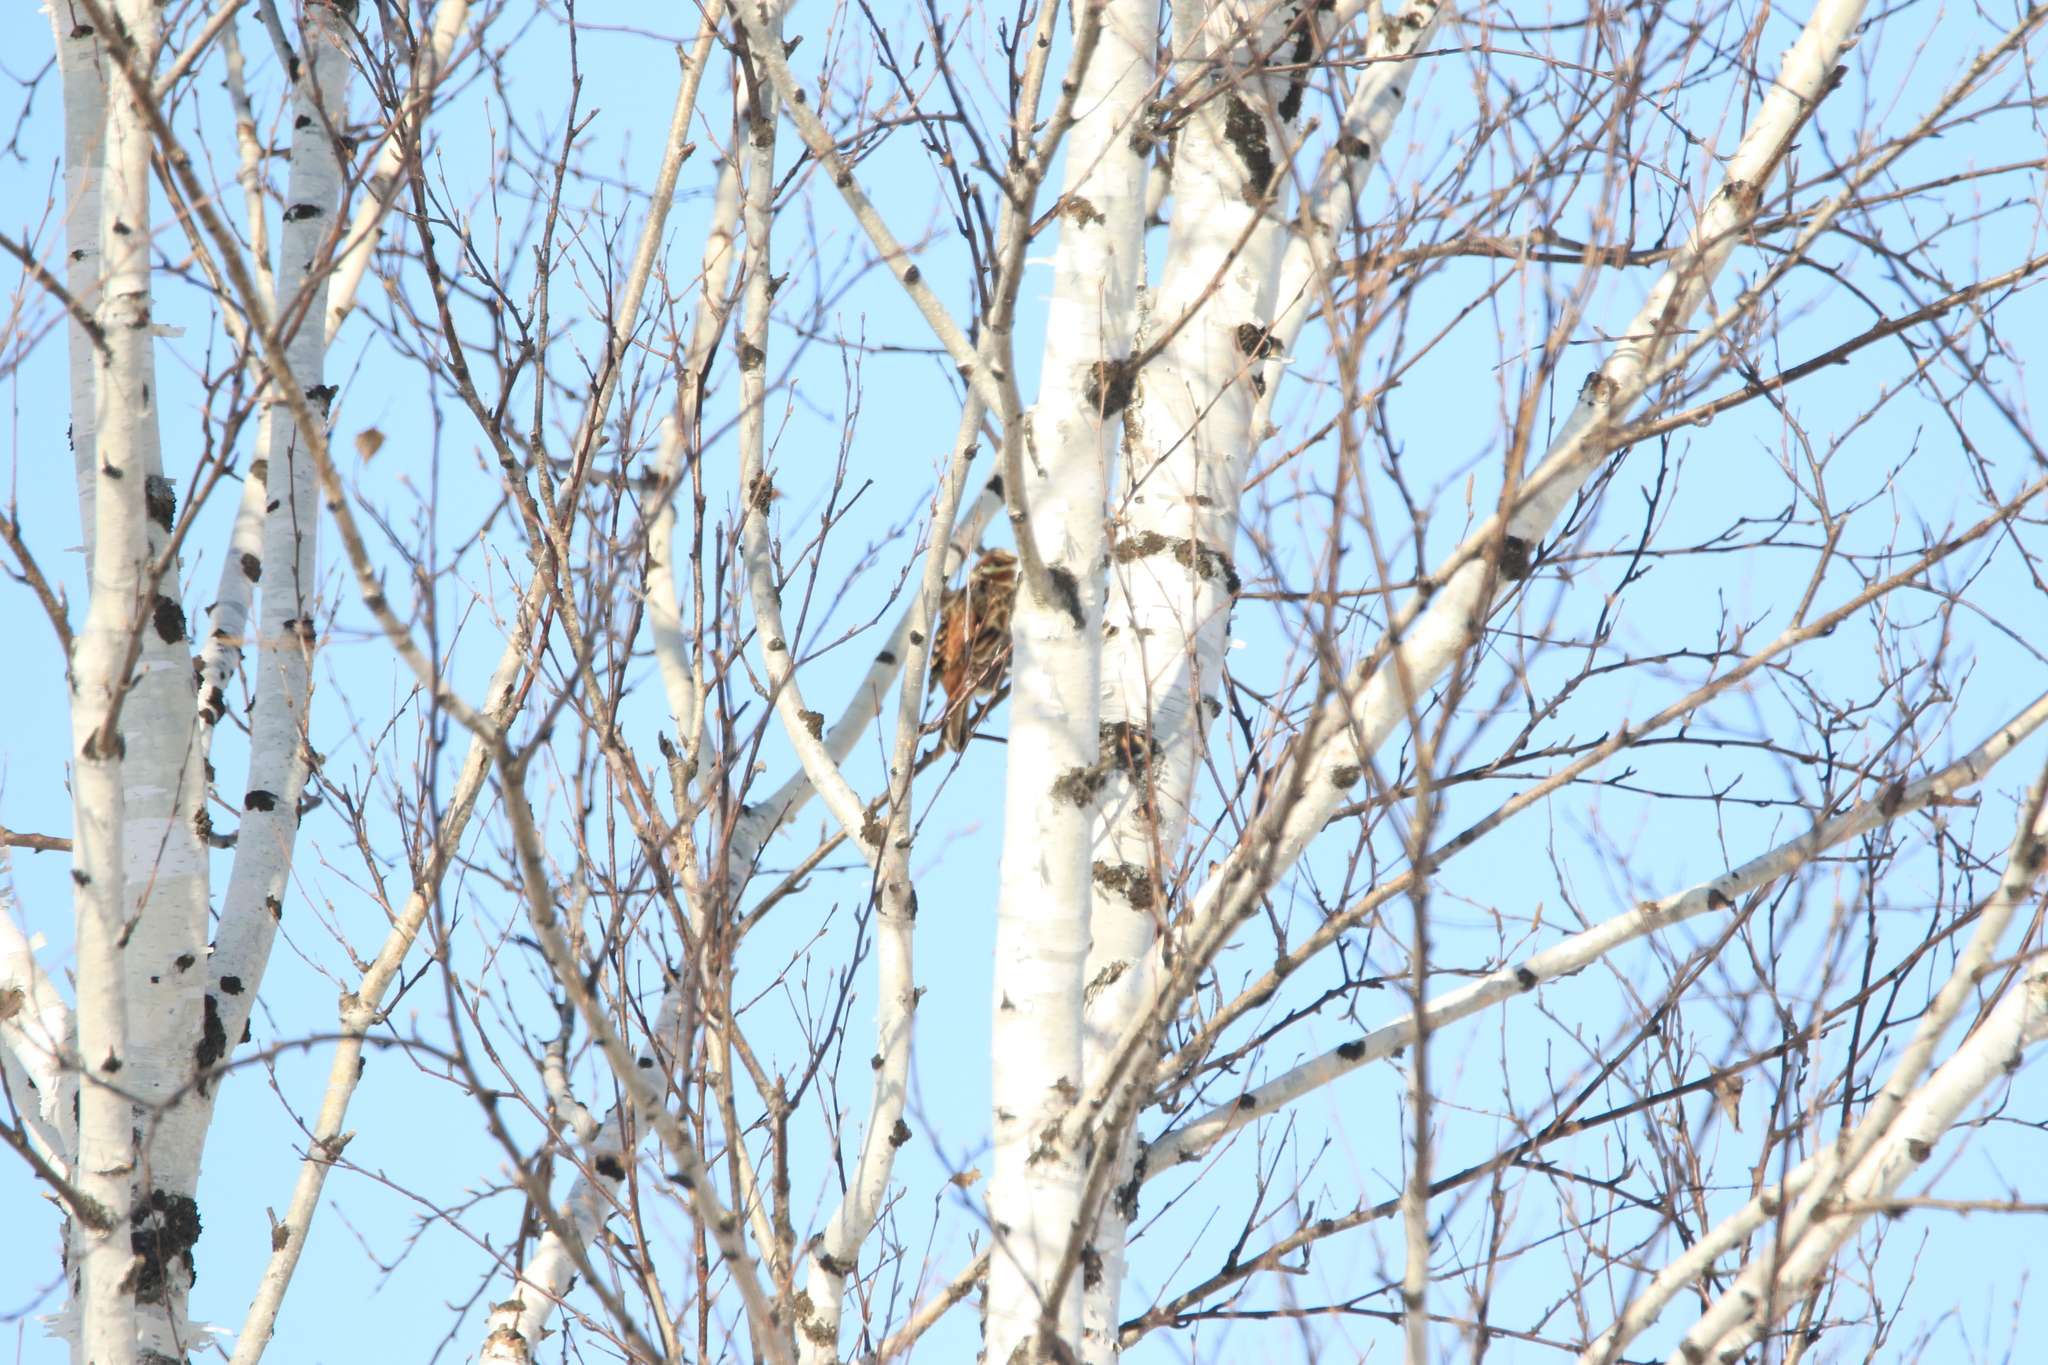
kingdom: Animalia
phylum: Chordata
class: Aves
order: Passeriformes
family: Emberizidae
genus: Emberiza
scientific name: Emberiza
